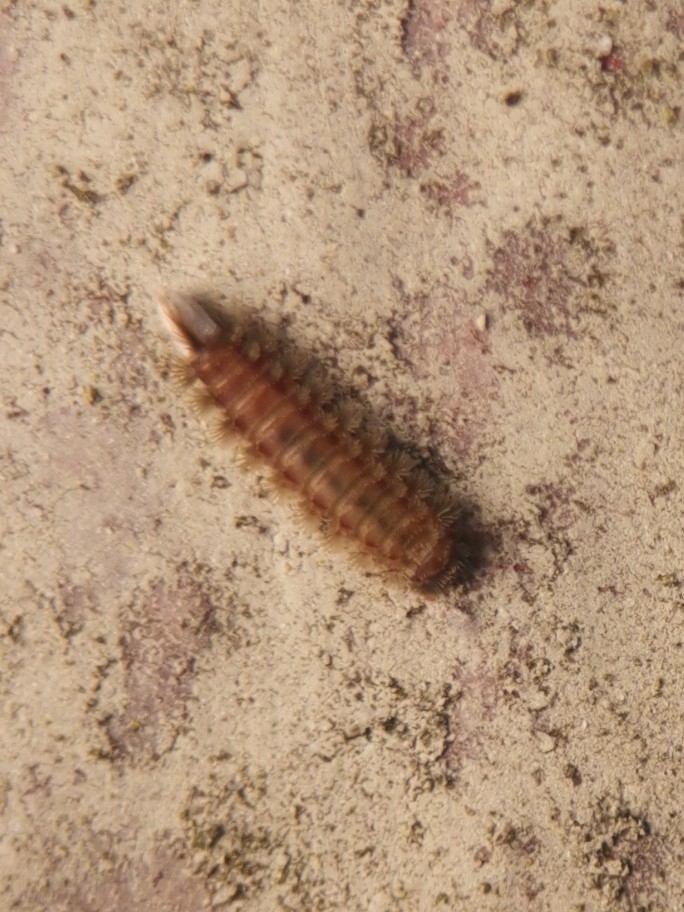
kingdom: Animalia
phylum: Arthropoda
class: Diplopoda
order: Polyxenida
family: Polyxenidae
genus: Polyxenus
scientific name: Polyxenus lagurus
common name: Bristly millipede
